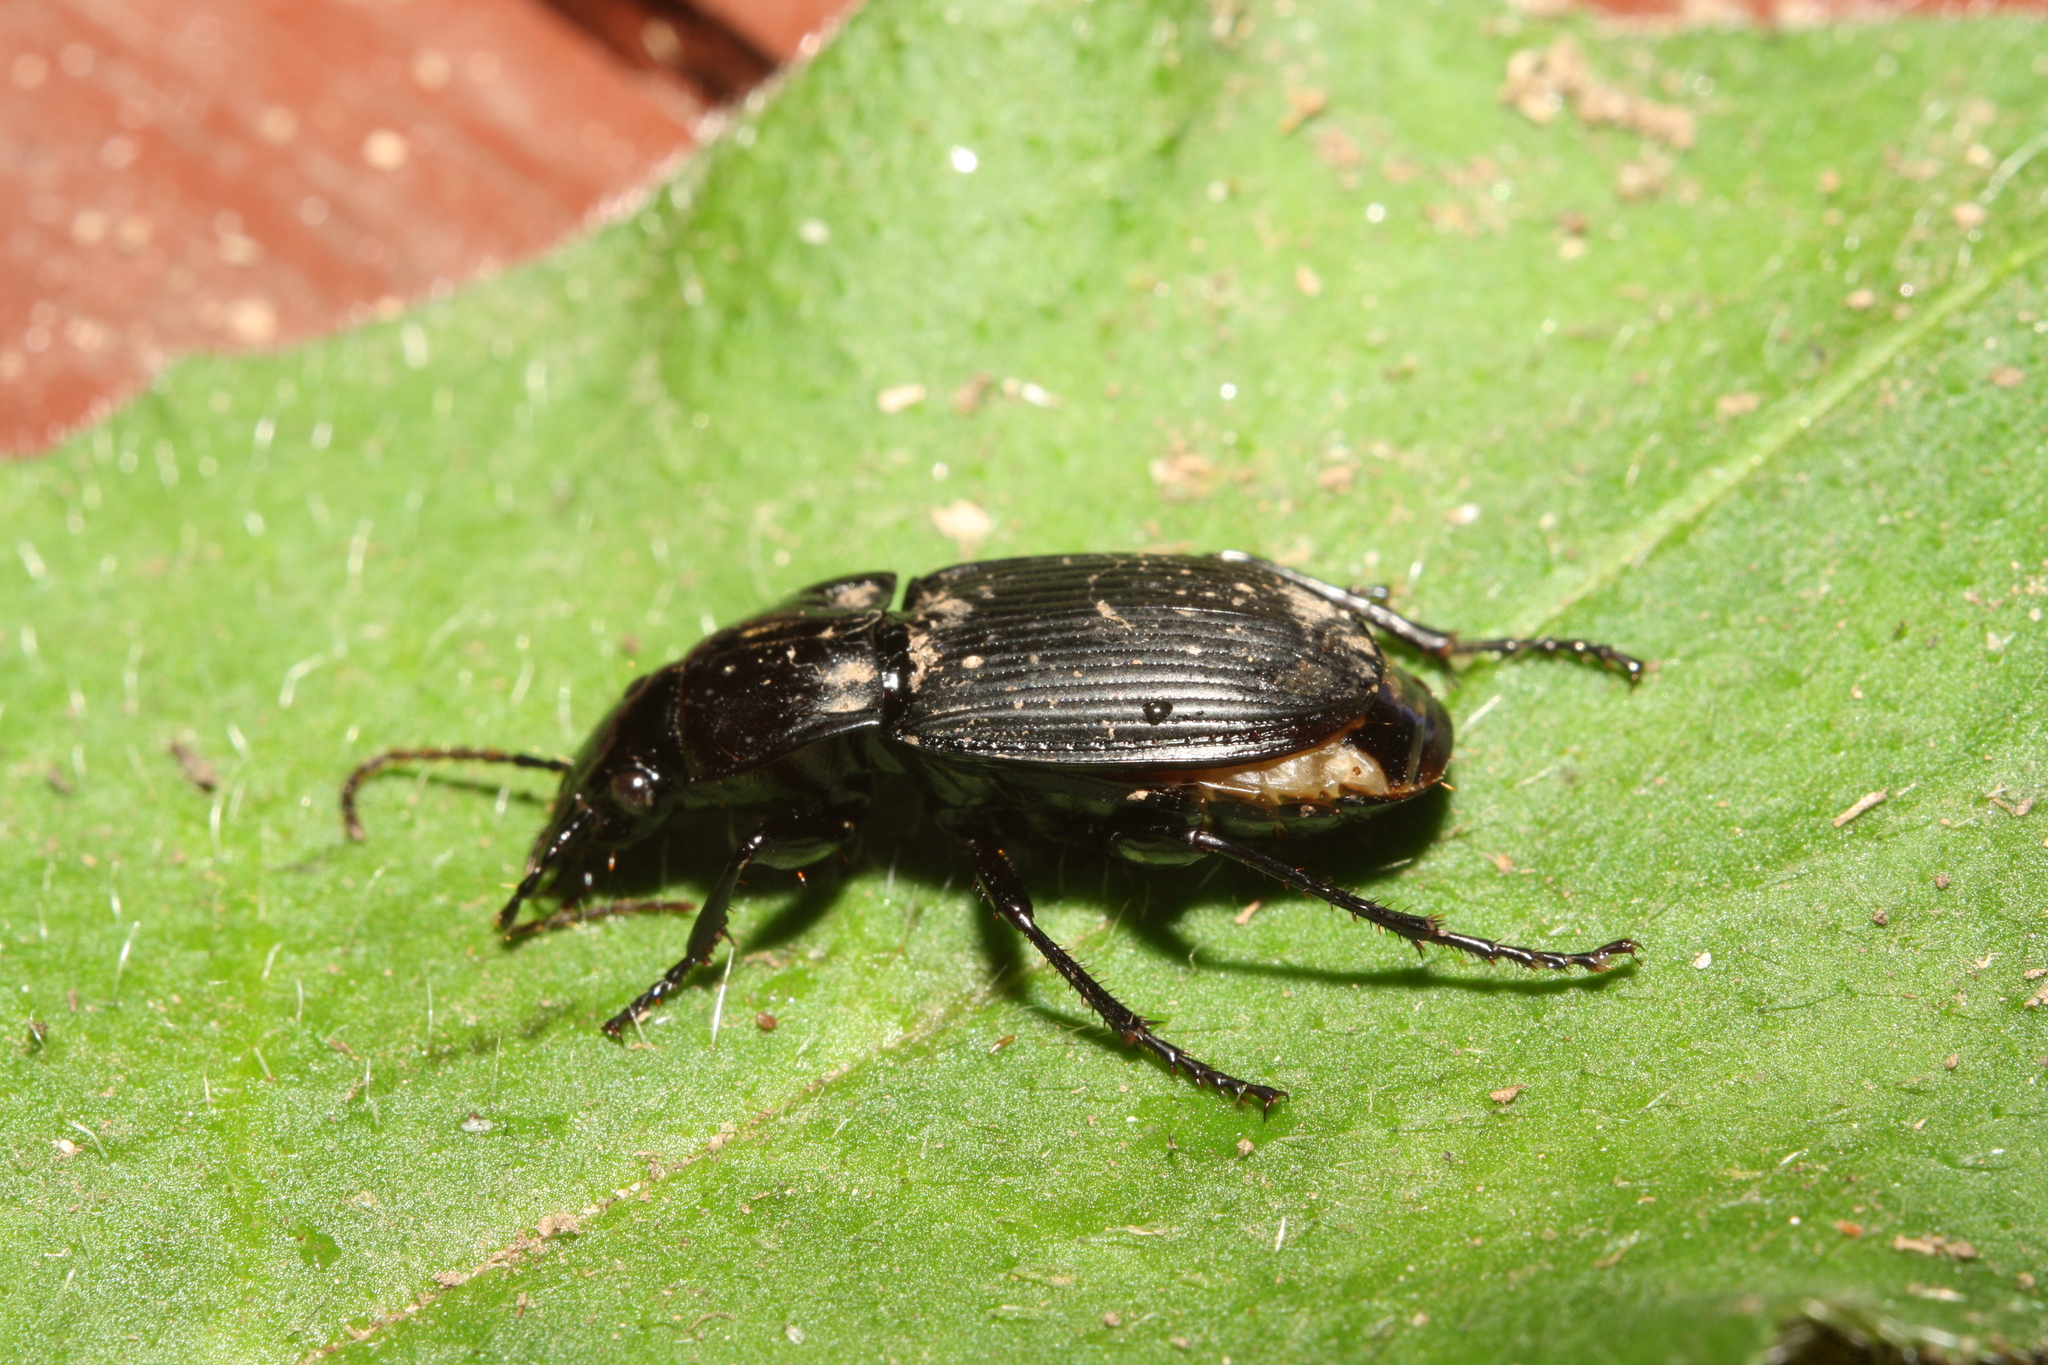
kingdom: Animalia
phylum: Arthropoda
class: Insecta
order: Coleoptera
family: Carabidae
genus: Abax
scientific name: Abax carinatus
